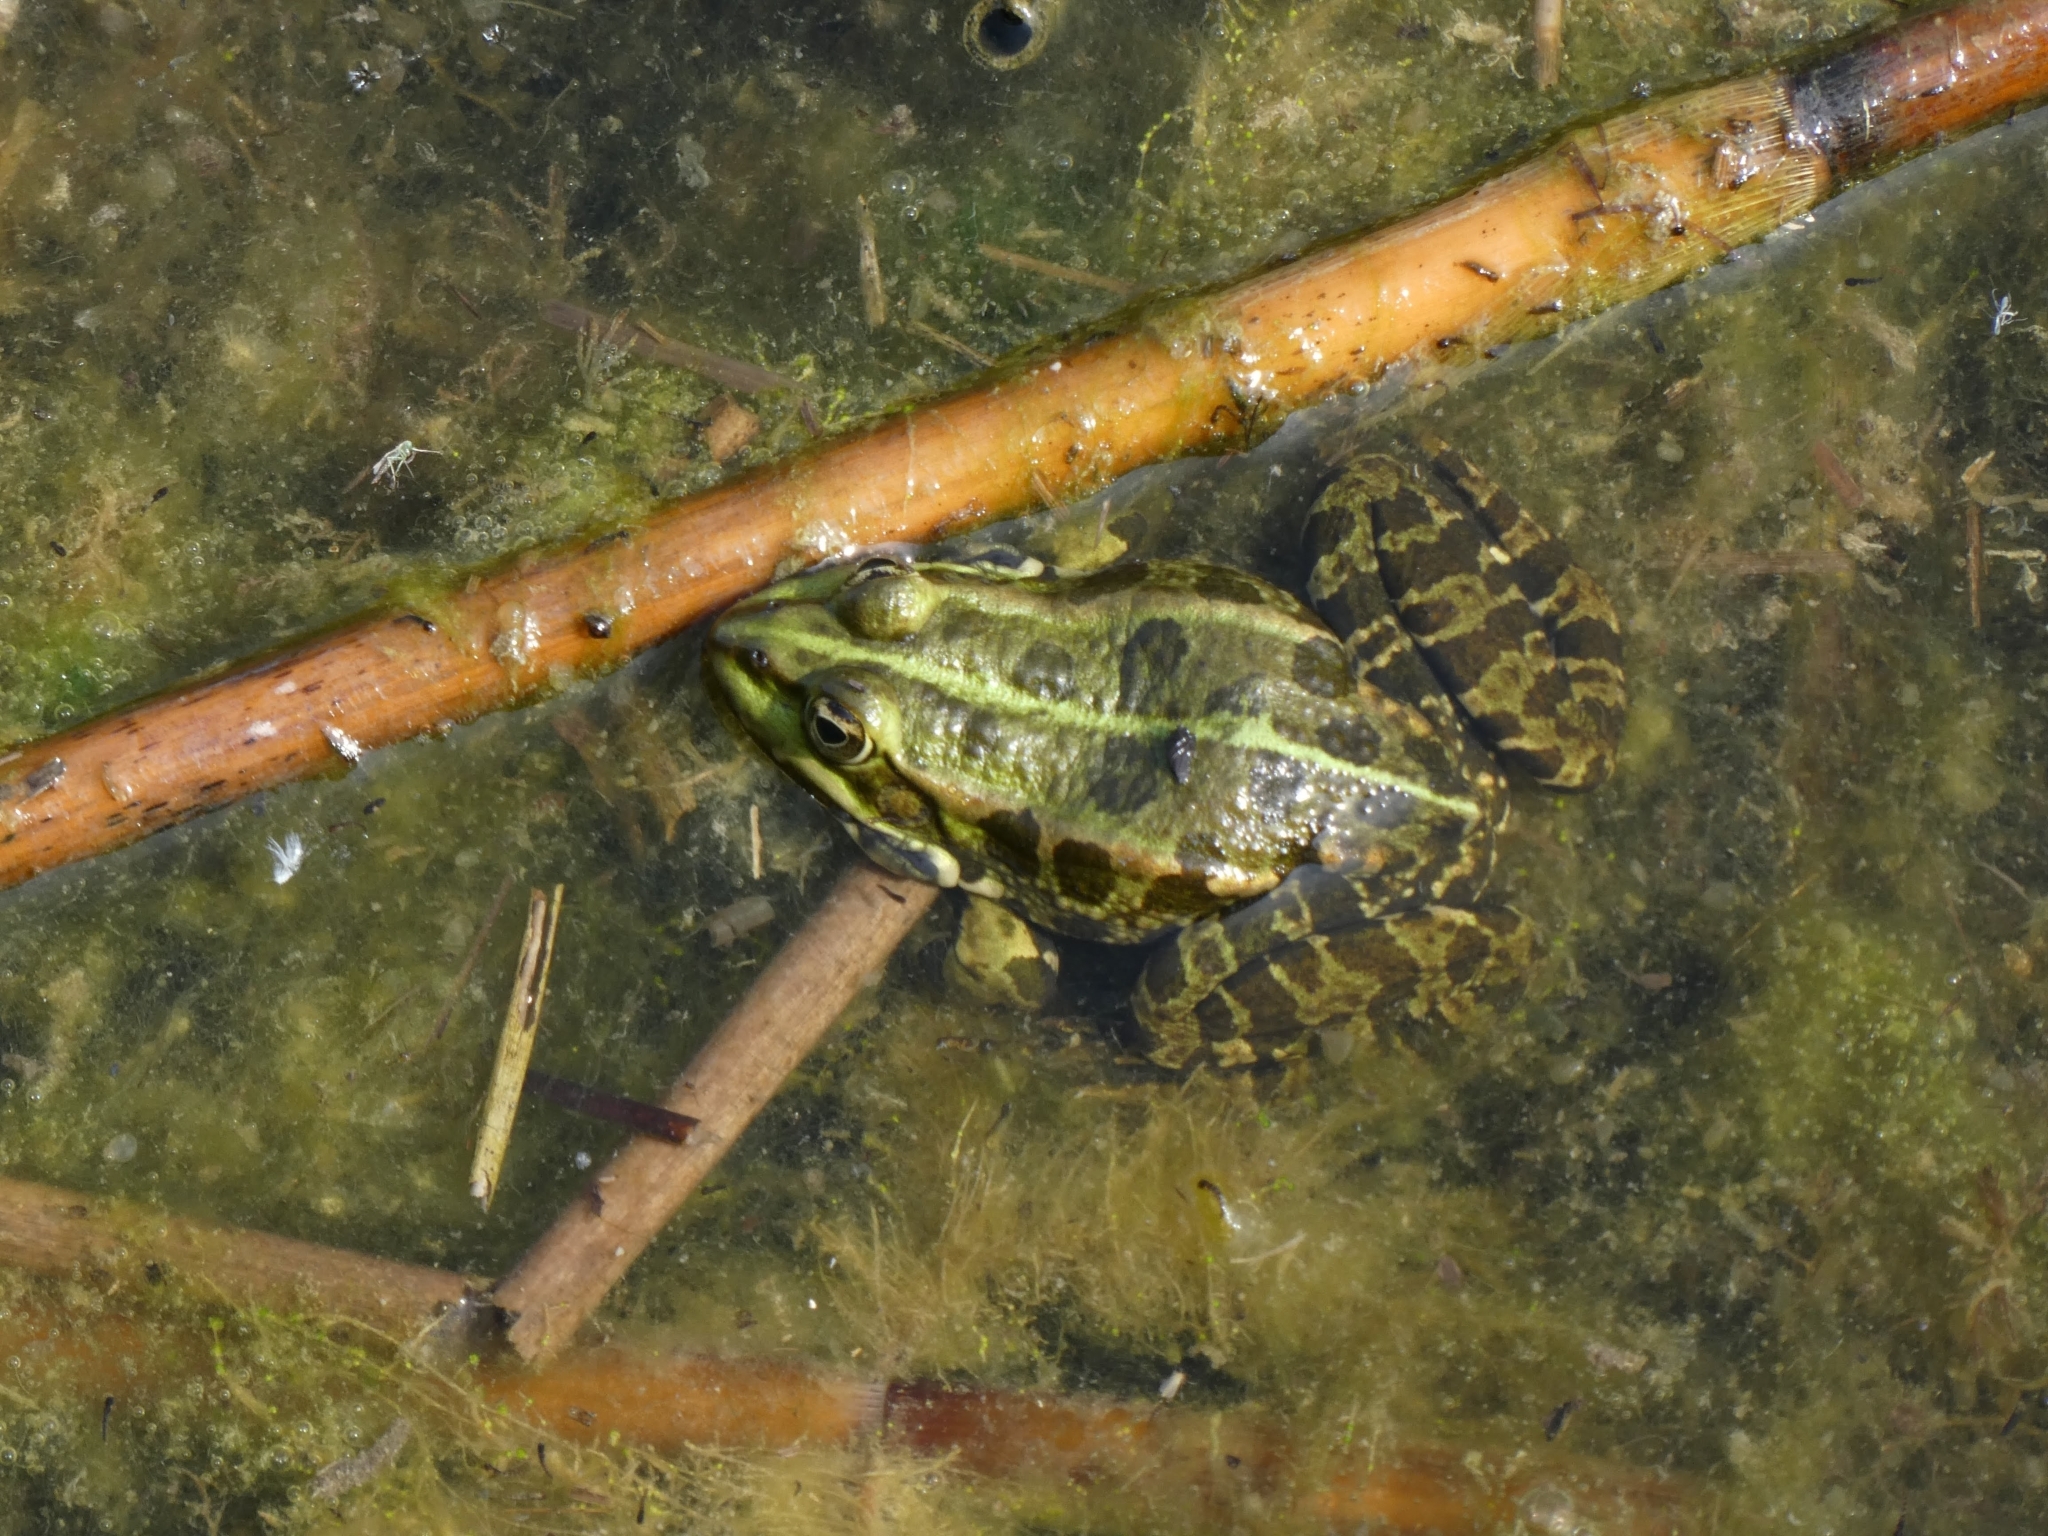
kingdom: Animalia
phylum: Chordata
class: Amphibia
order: Anura
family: Ranidae
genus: Pelophylax
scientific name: Pelophylax
